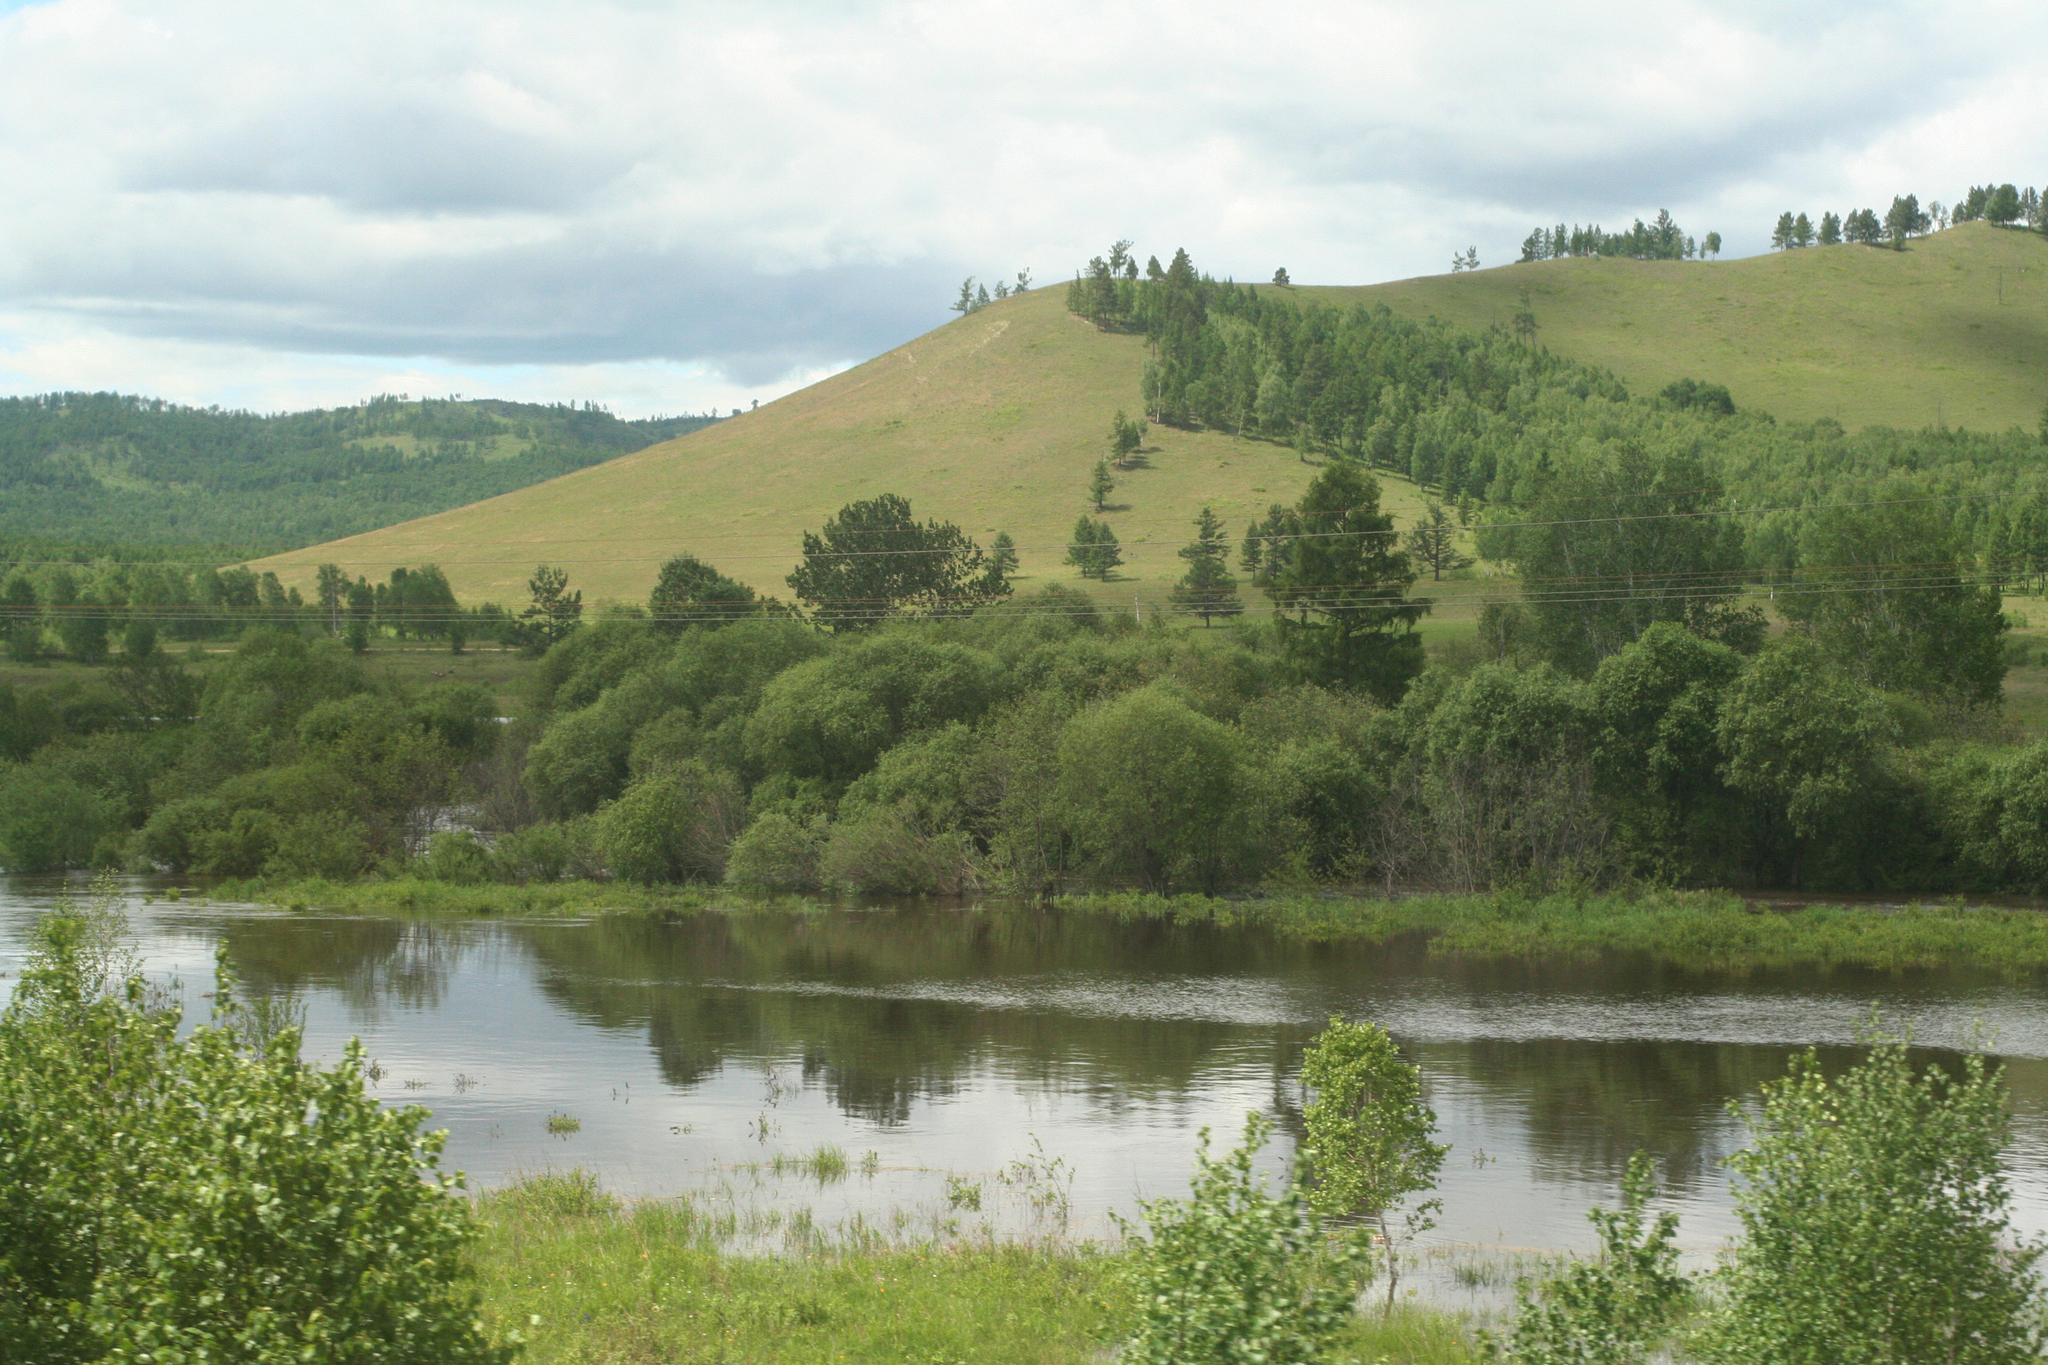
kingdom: Plantae
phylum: Tracheophyta
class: Pinopsida
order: Pinales
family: Pinaceae
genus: Pinus
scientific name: Pinus sylvestris
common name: Scots pine
